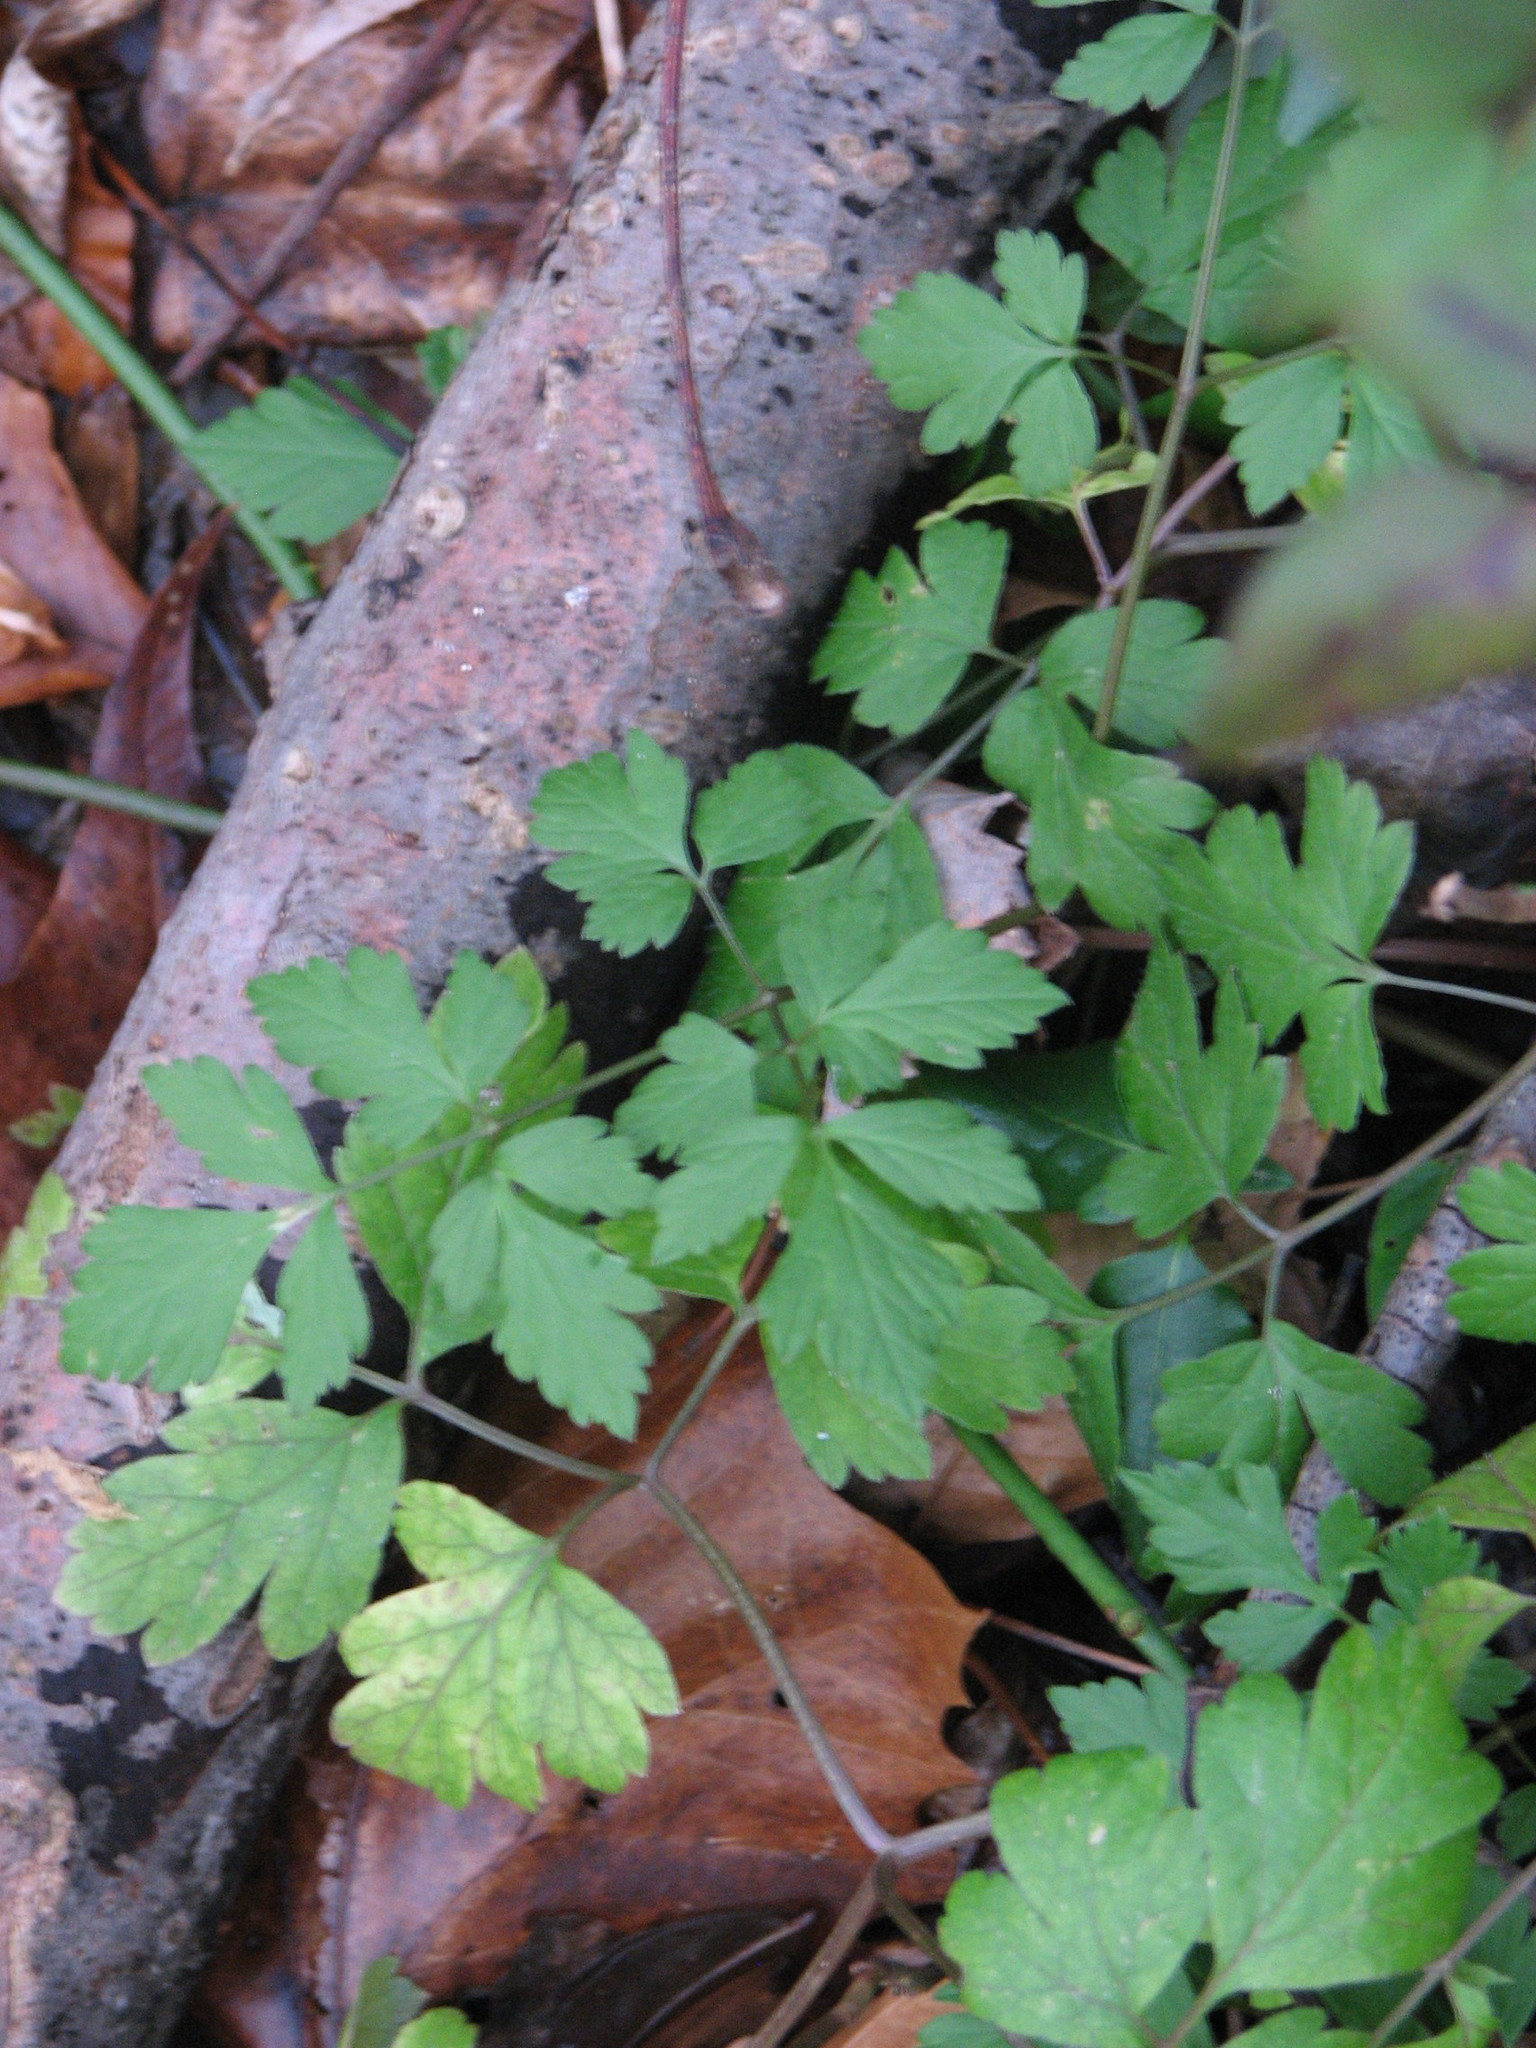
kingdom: Plantae
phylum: Tracheophyta
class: Magnoliopsida
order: Apiales
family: Apiaceae
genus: Osmorhiza
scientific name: Osmorhiza
